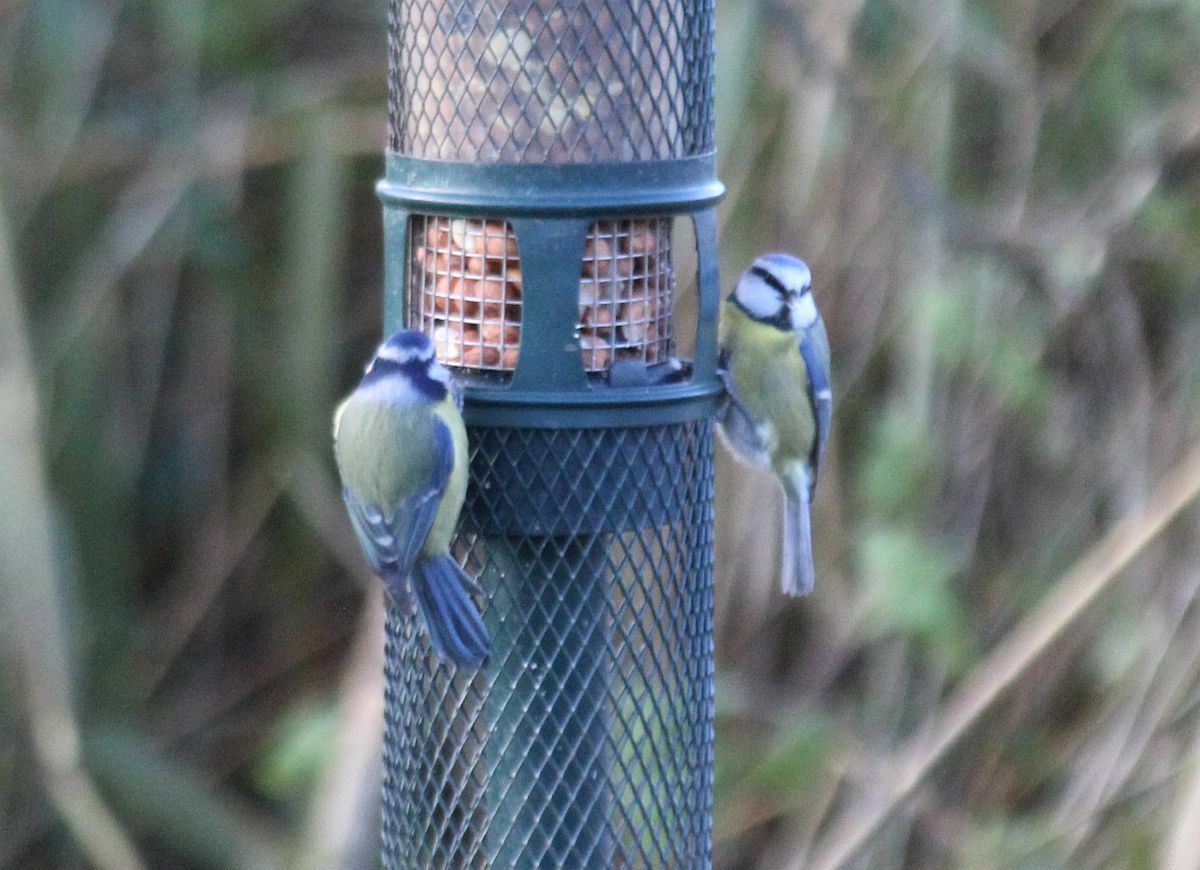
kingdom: Animalia
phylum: Chordata
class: Aves
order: Passeriformes
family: Paridae
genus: Cyanistes
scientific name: Cyanistes caeruleus
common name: Eurasian blue tit
